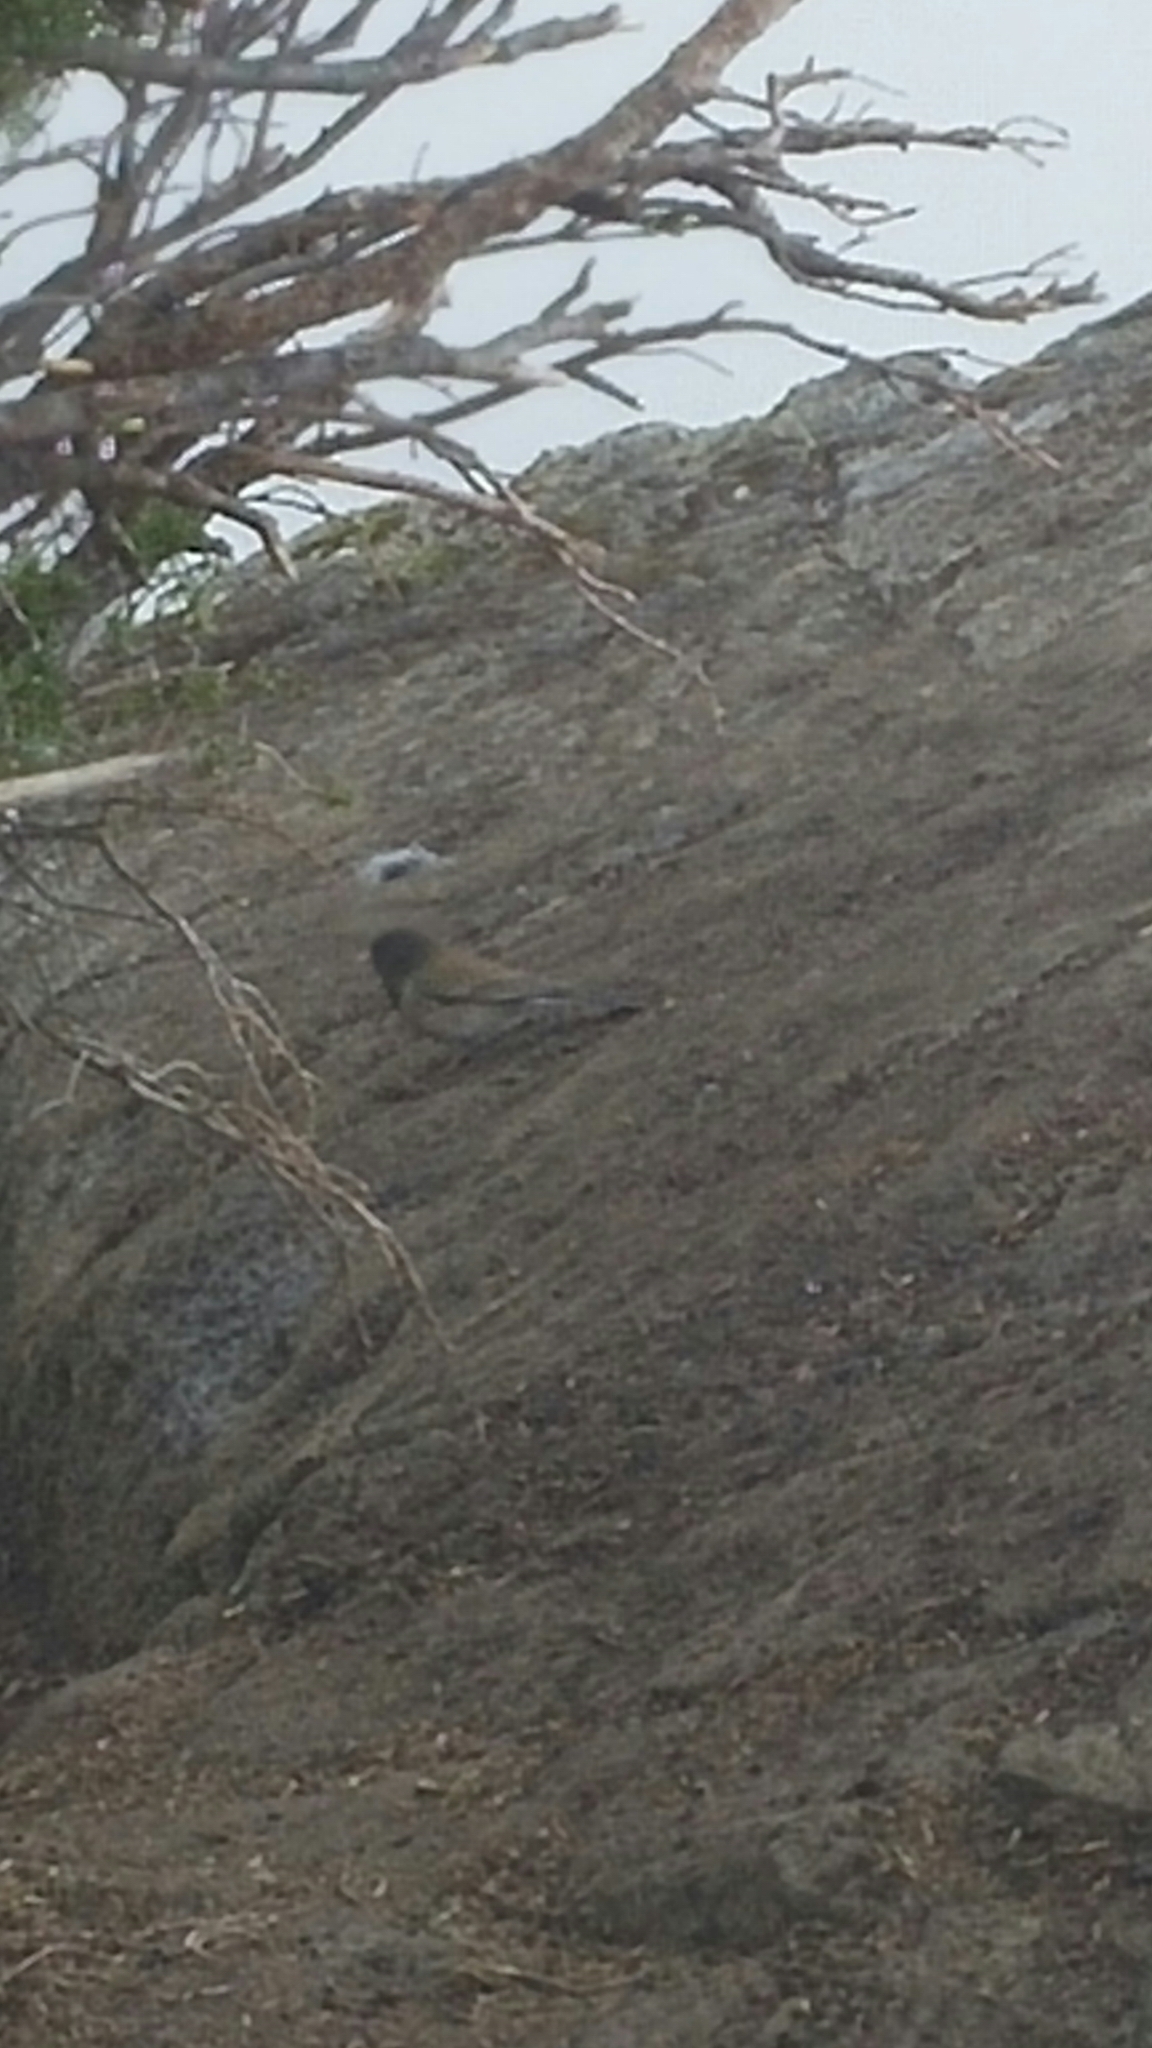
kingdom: Animalia
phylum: Chordata
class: Aves
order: Passeriformes
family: Passerellidae
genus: Junco
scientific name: Junco hyemalis
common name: Dark-eyed junco
